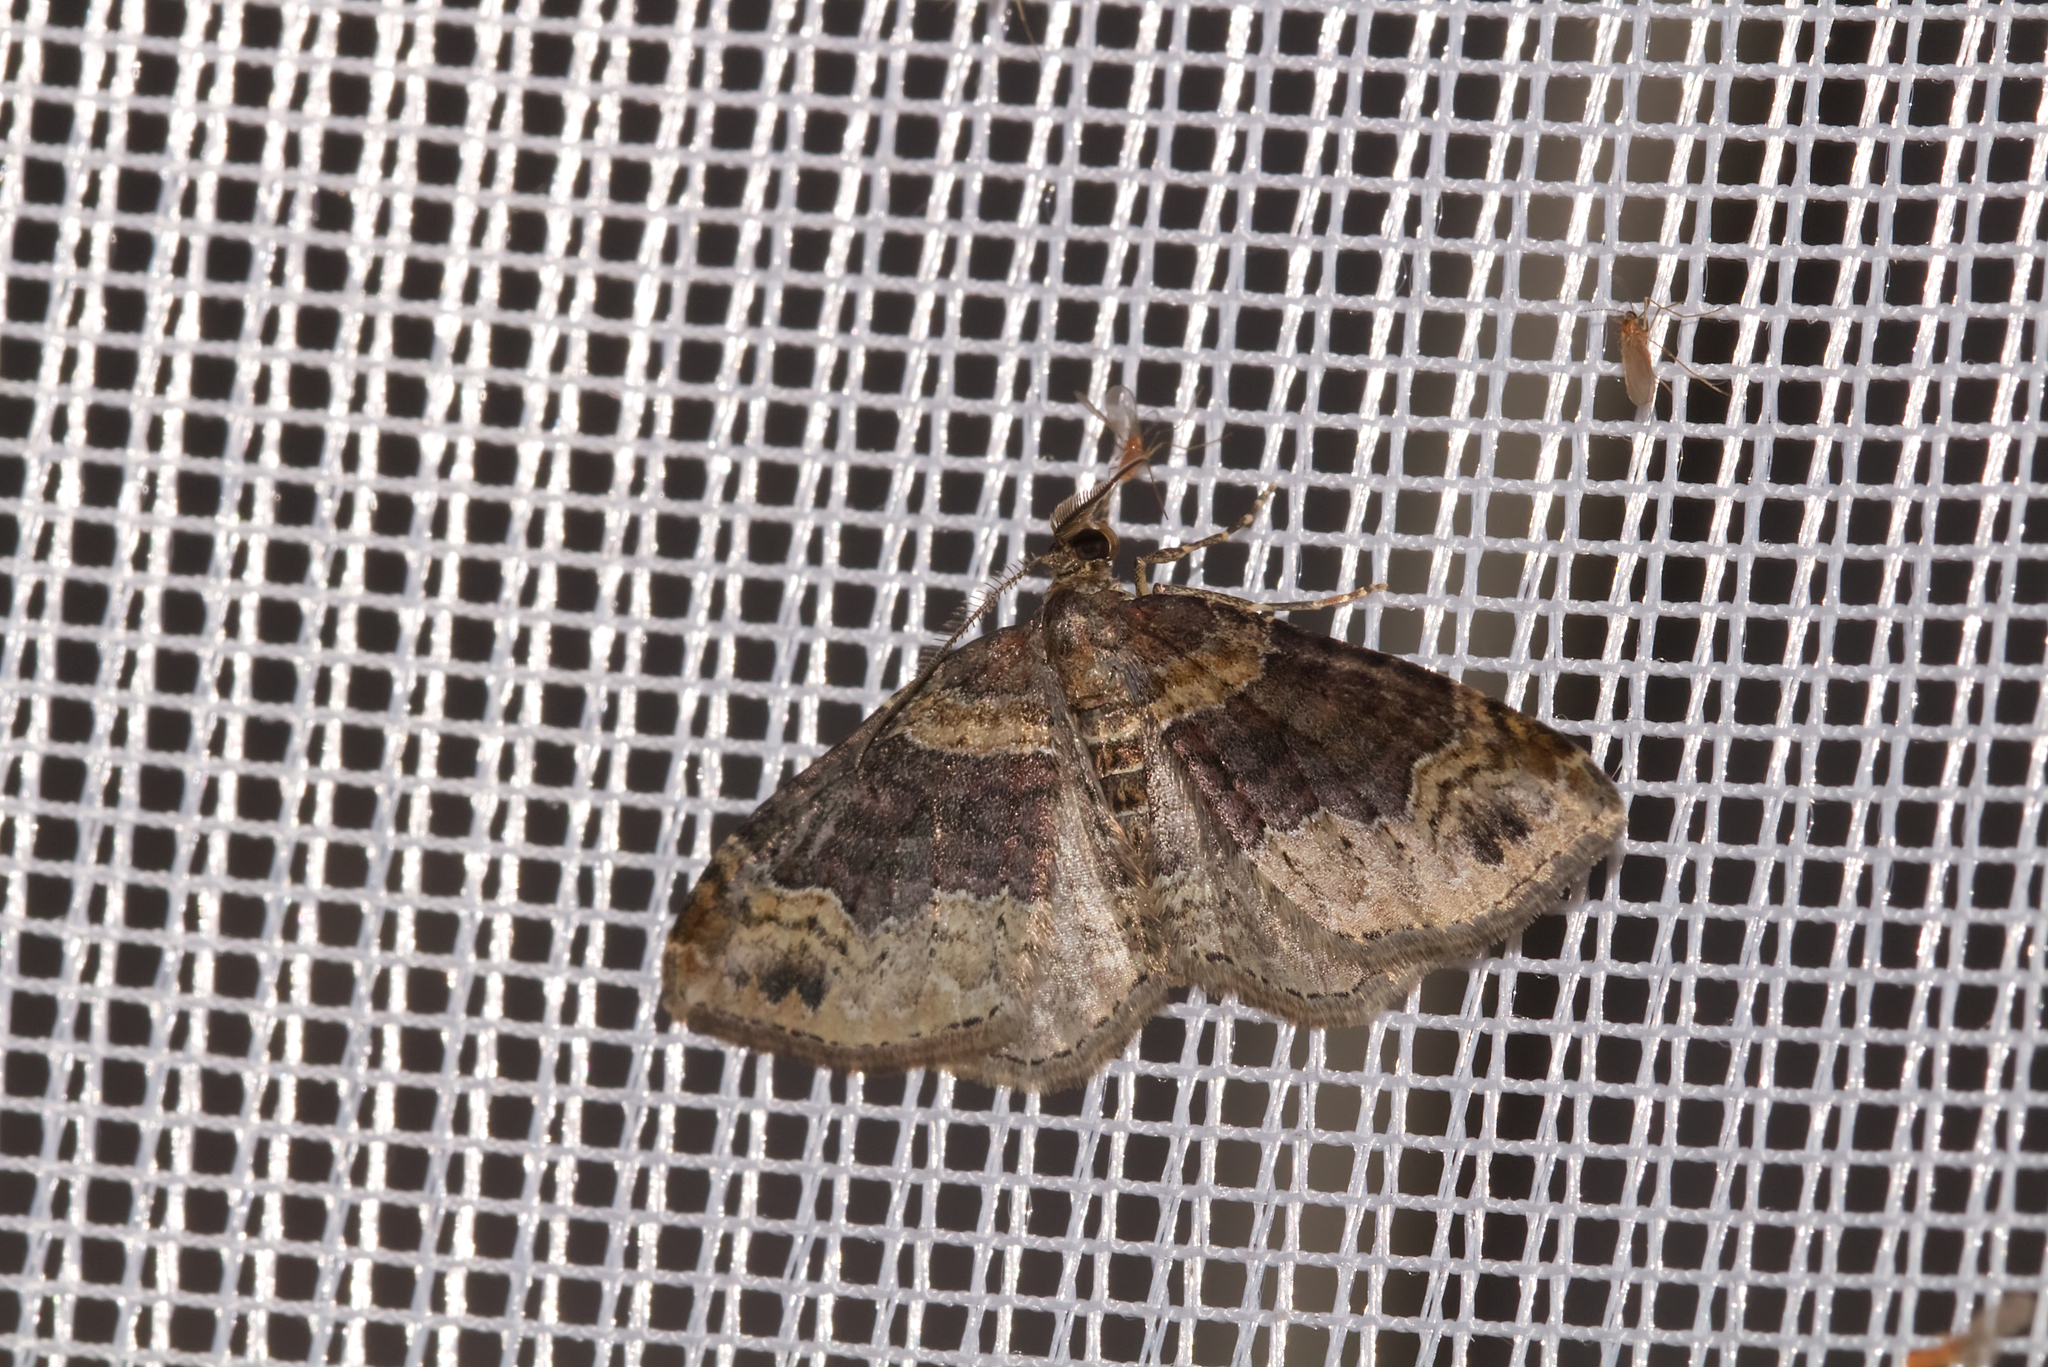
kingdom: Animalia
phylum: Arthropoda
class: Insecta
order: Lepidoptera
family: Geometridae
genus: Xanthorhoe
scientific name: Xanthorhoe ferrugata
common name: Dark-barred twin-spot carpet
